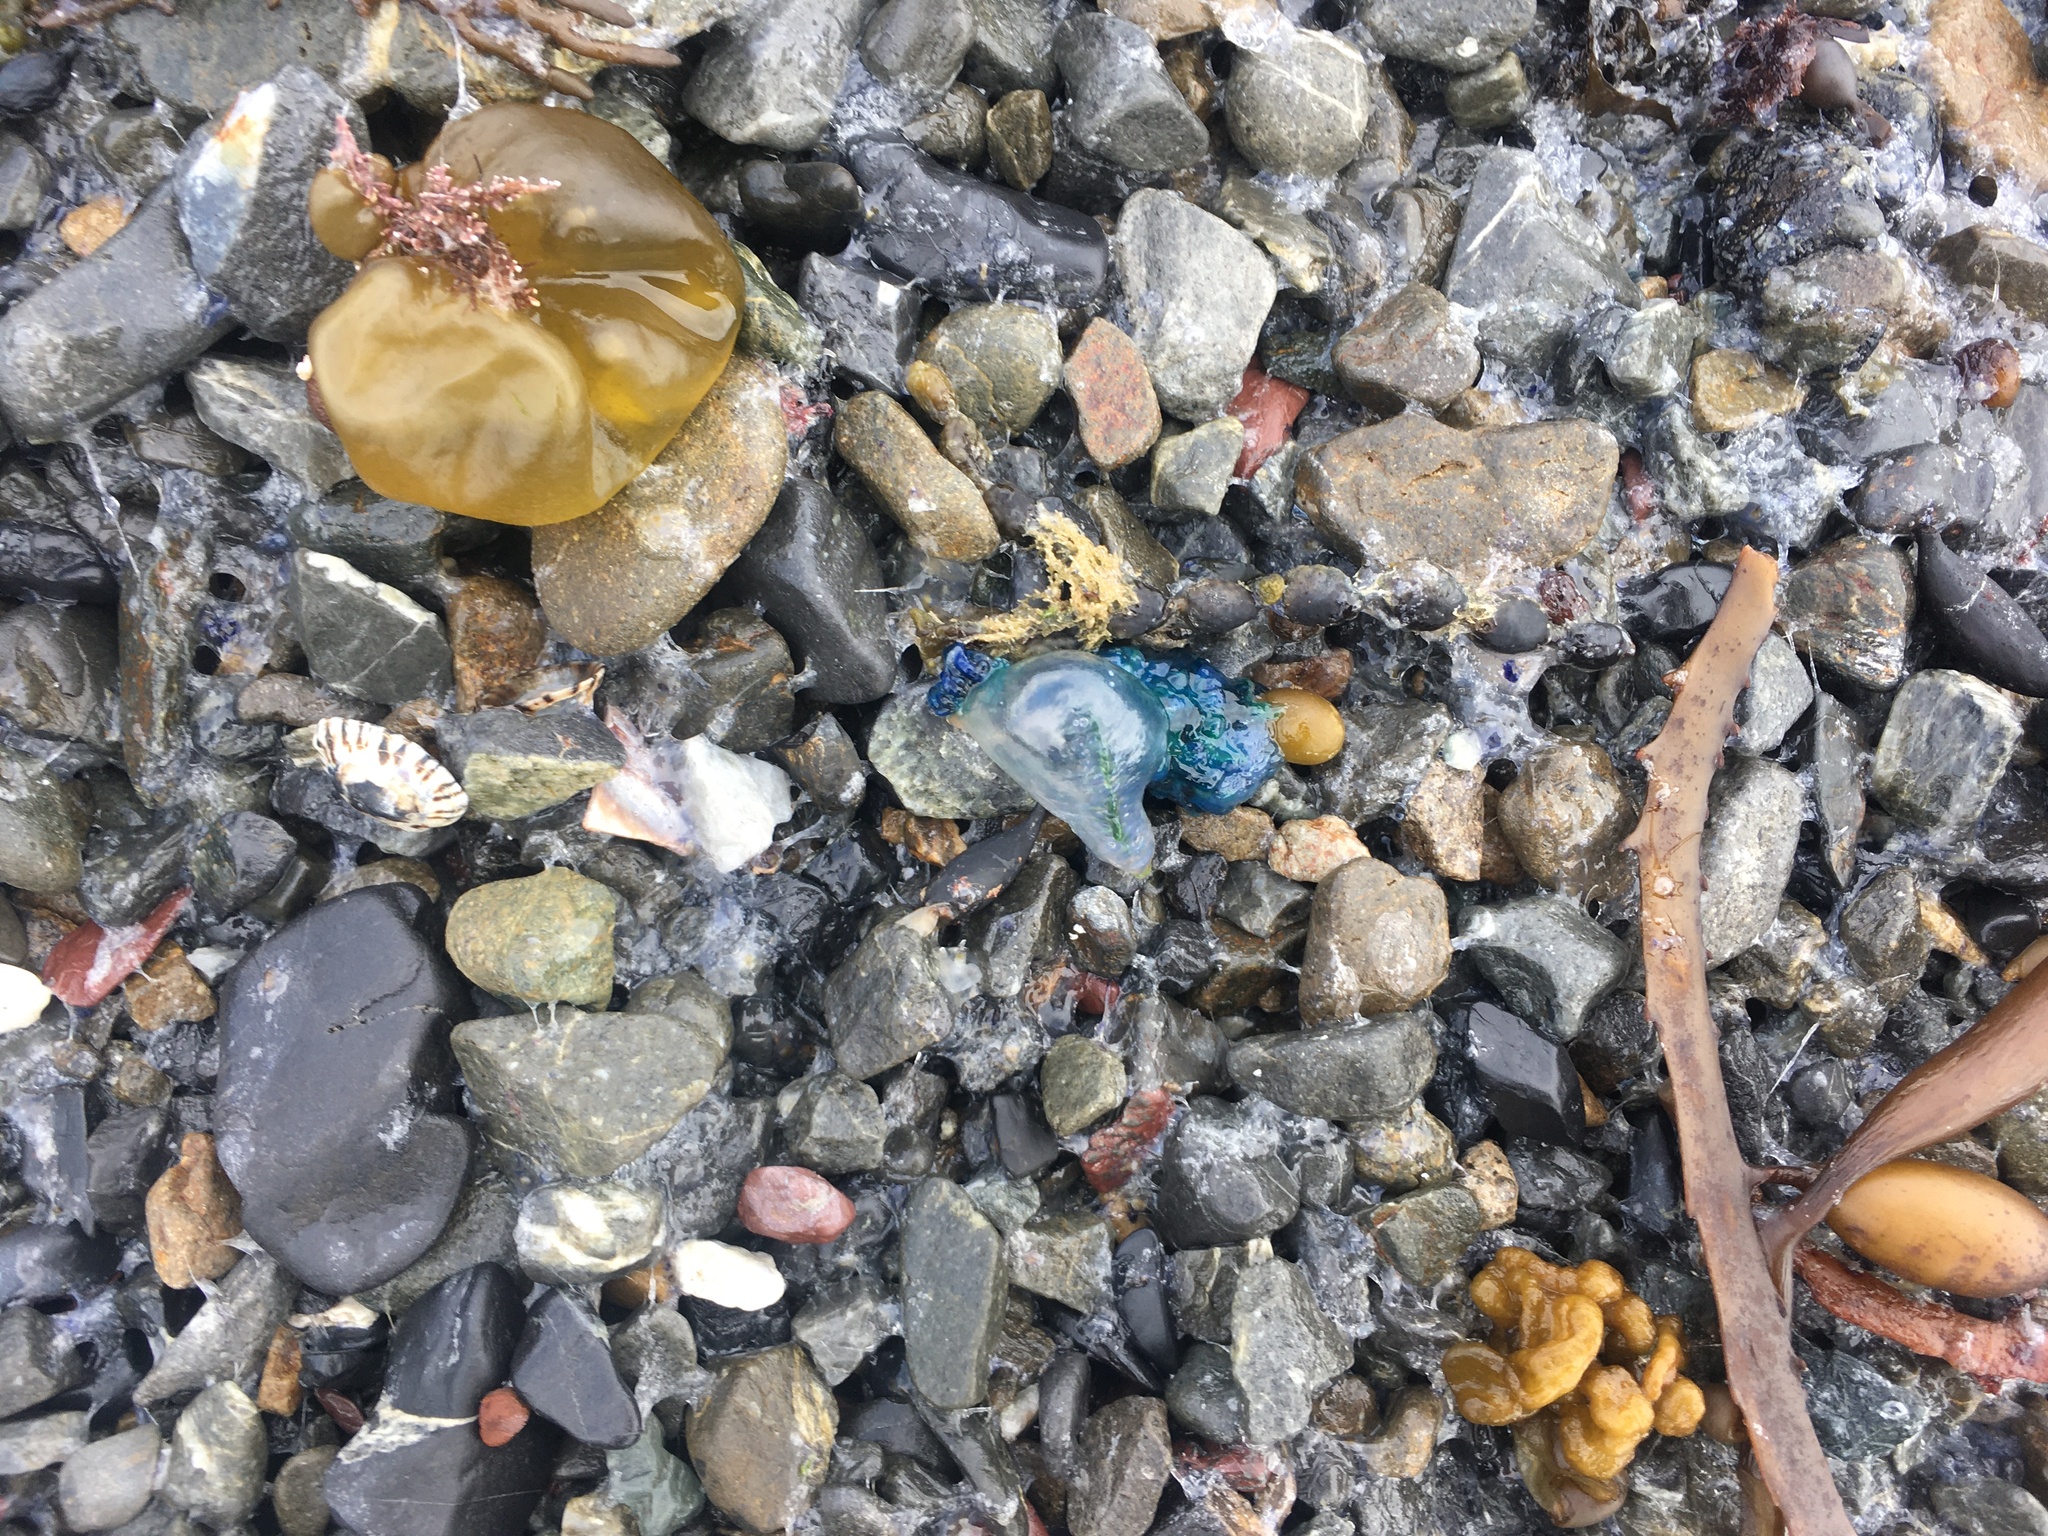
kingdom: Animalia
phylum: Cnidaria
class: Hydrozoa
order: Siphonophorae
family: Physaliidae
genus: Physalia
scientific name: Physalia physalis
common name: Portuguese man-of-war
